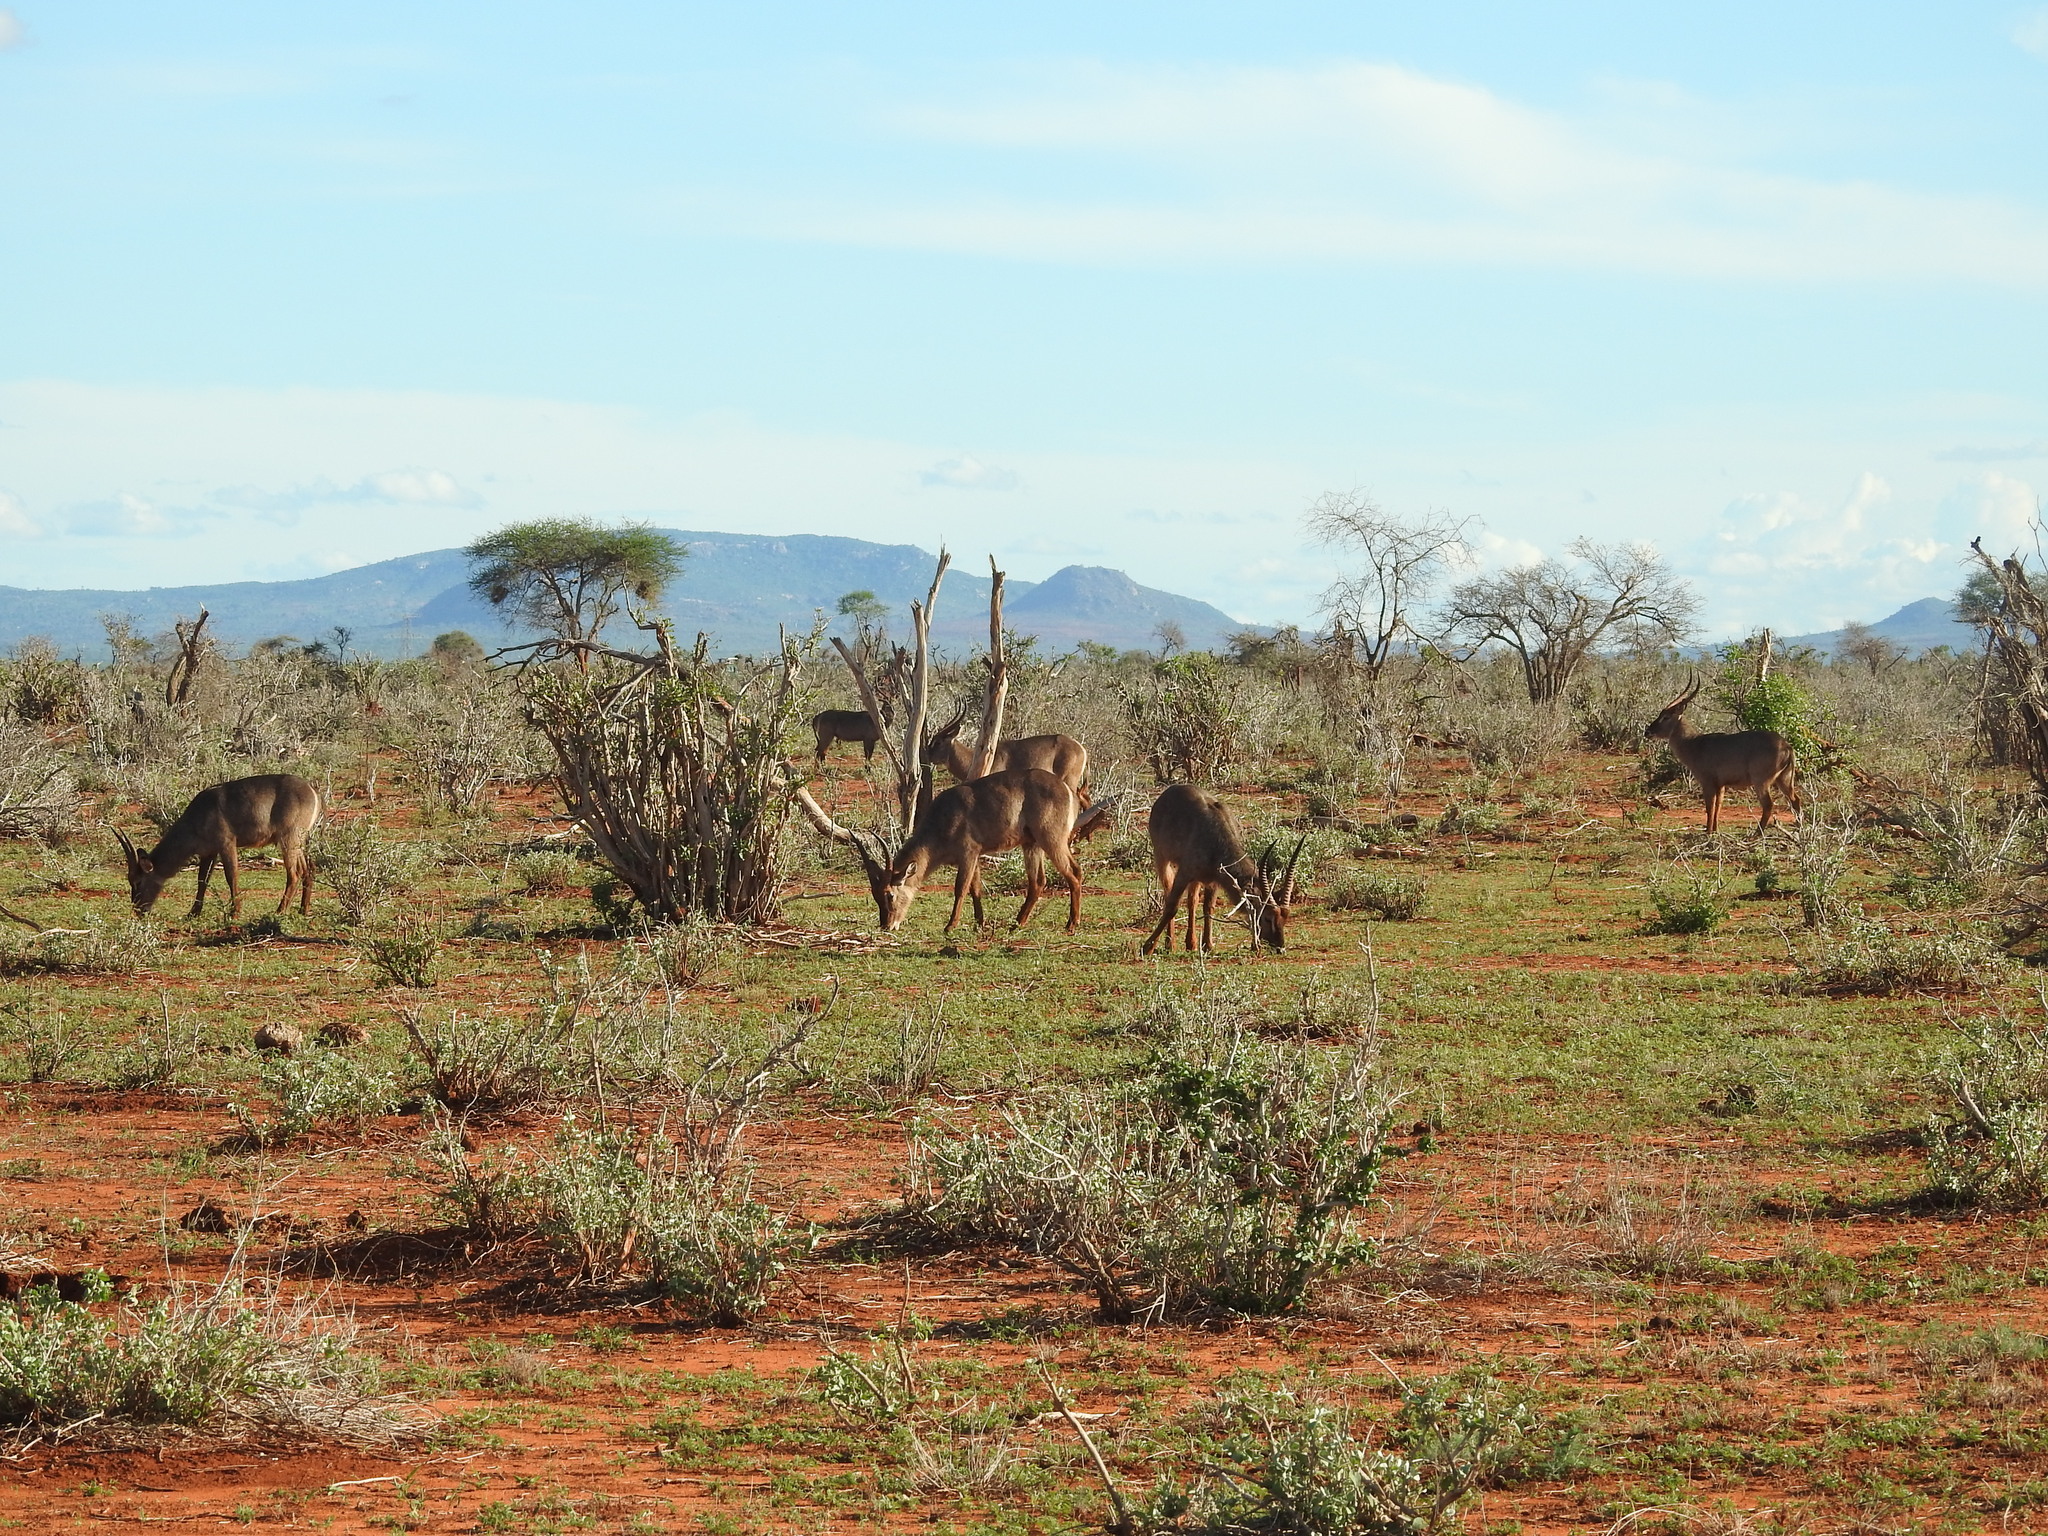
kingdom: Animalia
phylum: Chordata
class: Mammalia
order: Artiodactyla
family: Bovidae
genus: Kobus
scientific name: Kobus ellipsiprymnus
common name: Waterbuck
